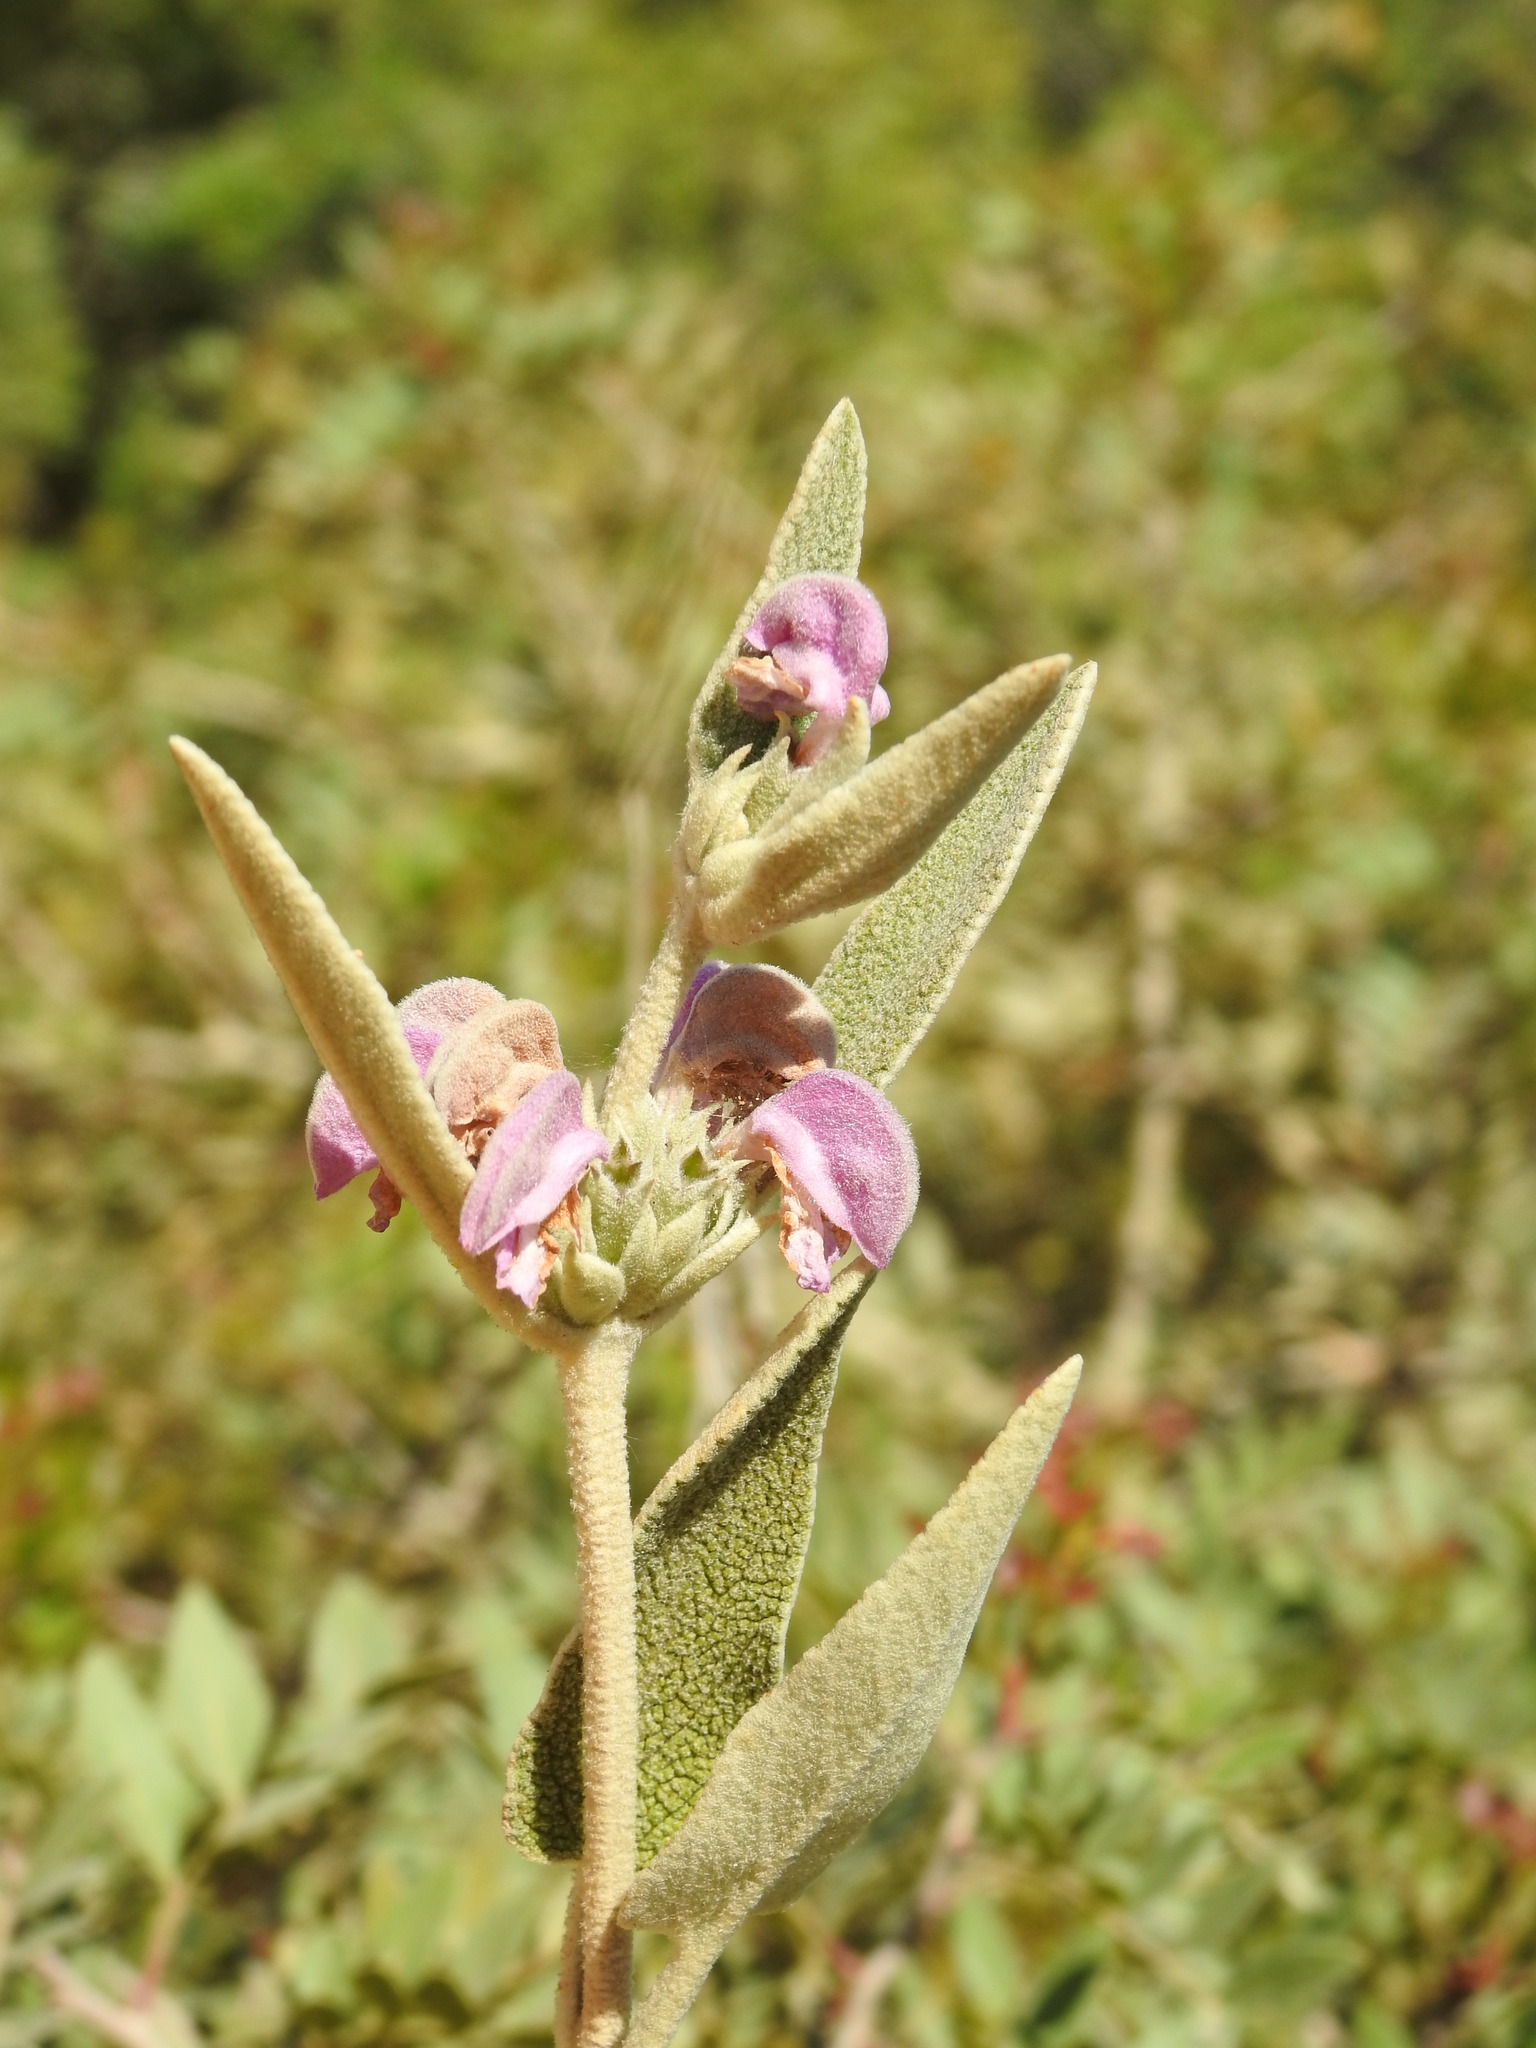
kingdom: Plantae
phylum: Tracheophyta
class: Magnoliopsida
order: Lamiales
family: Lamiaceae
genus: Phlomis
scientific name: Phlomis purpurea
